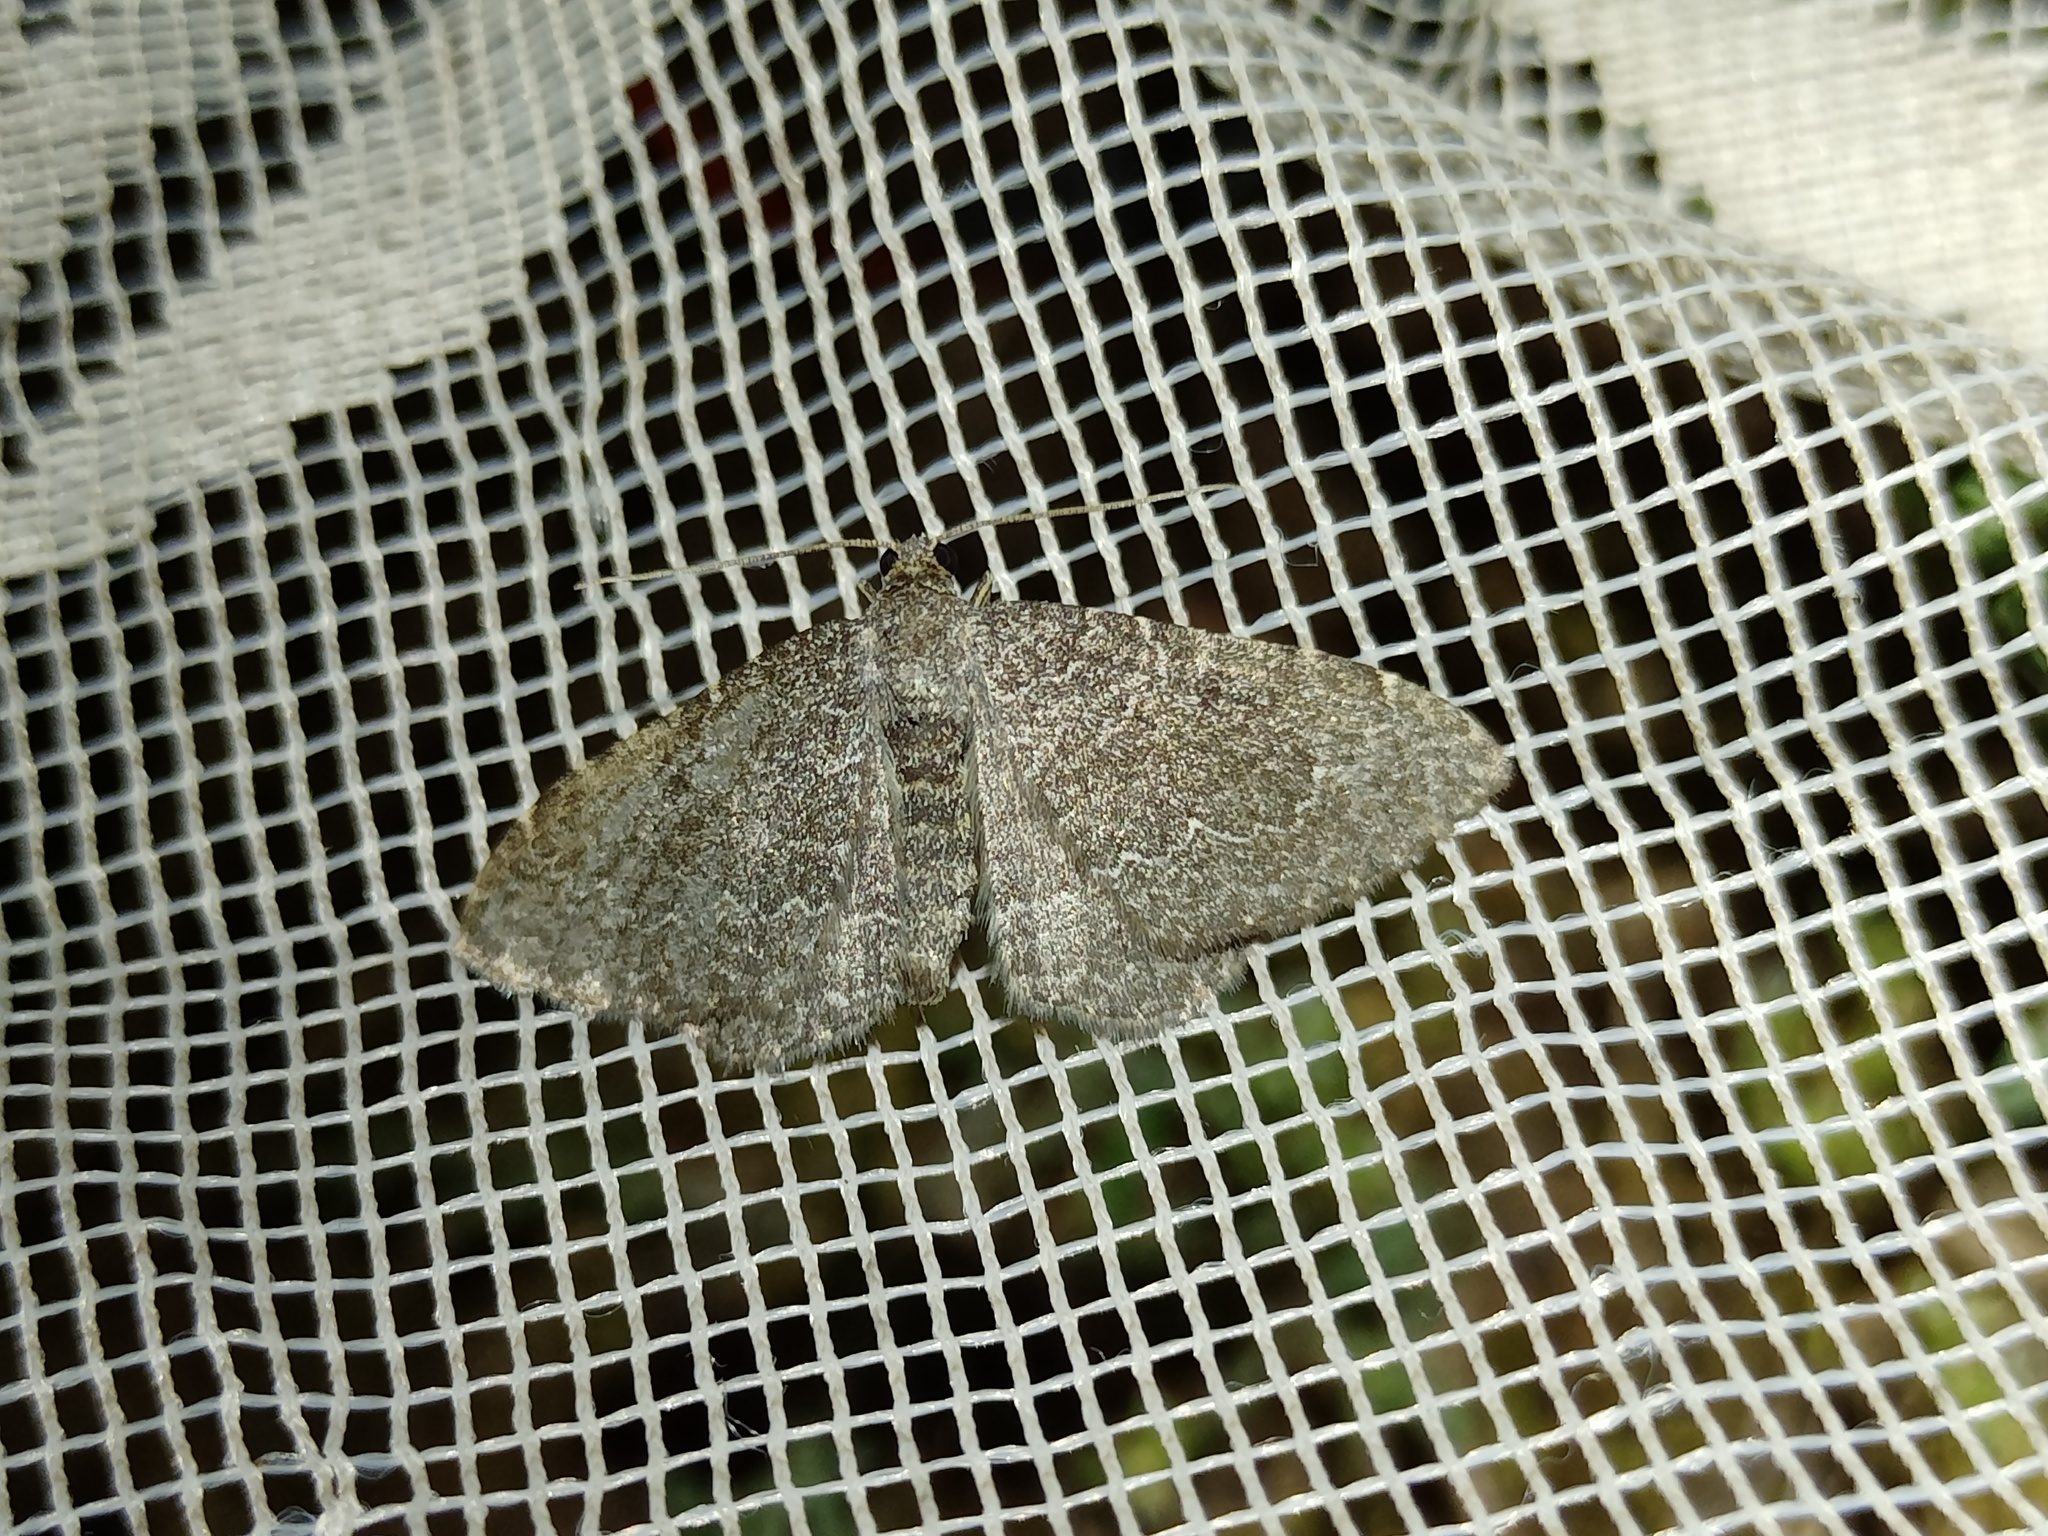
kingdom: Animalia
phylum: Arthropoda
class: Insecta
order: Lepidoptera
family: Geometridae
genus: Cataclysme
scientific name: Cataclysme riguata
